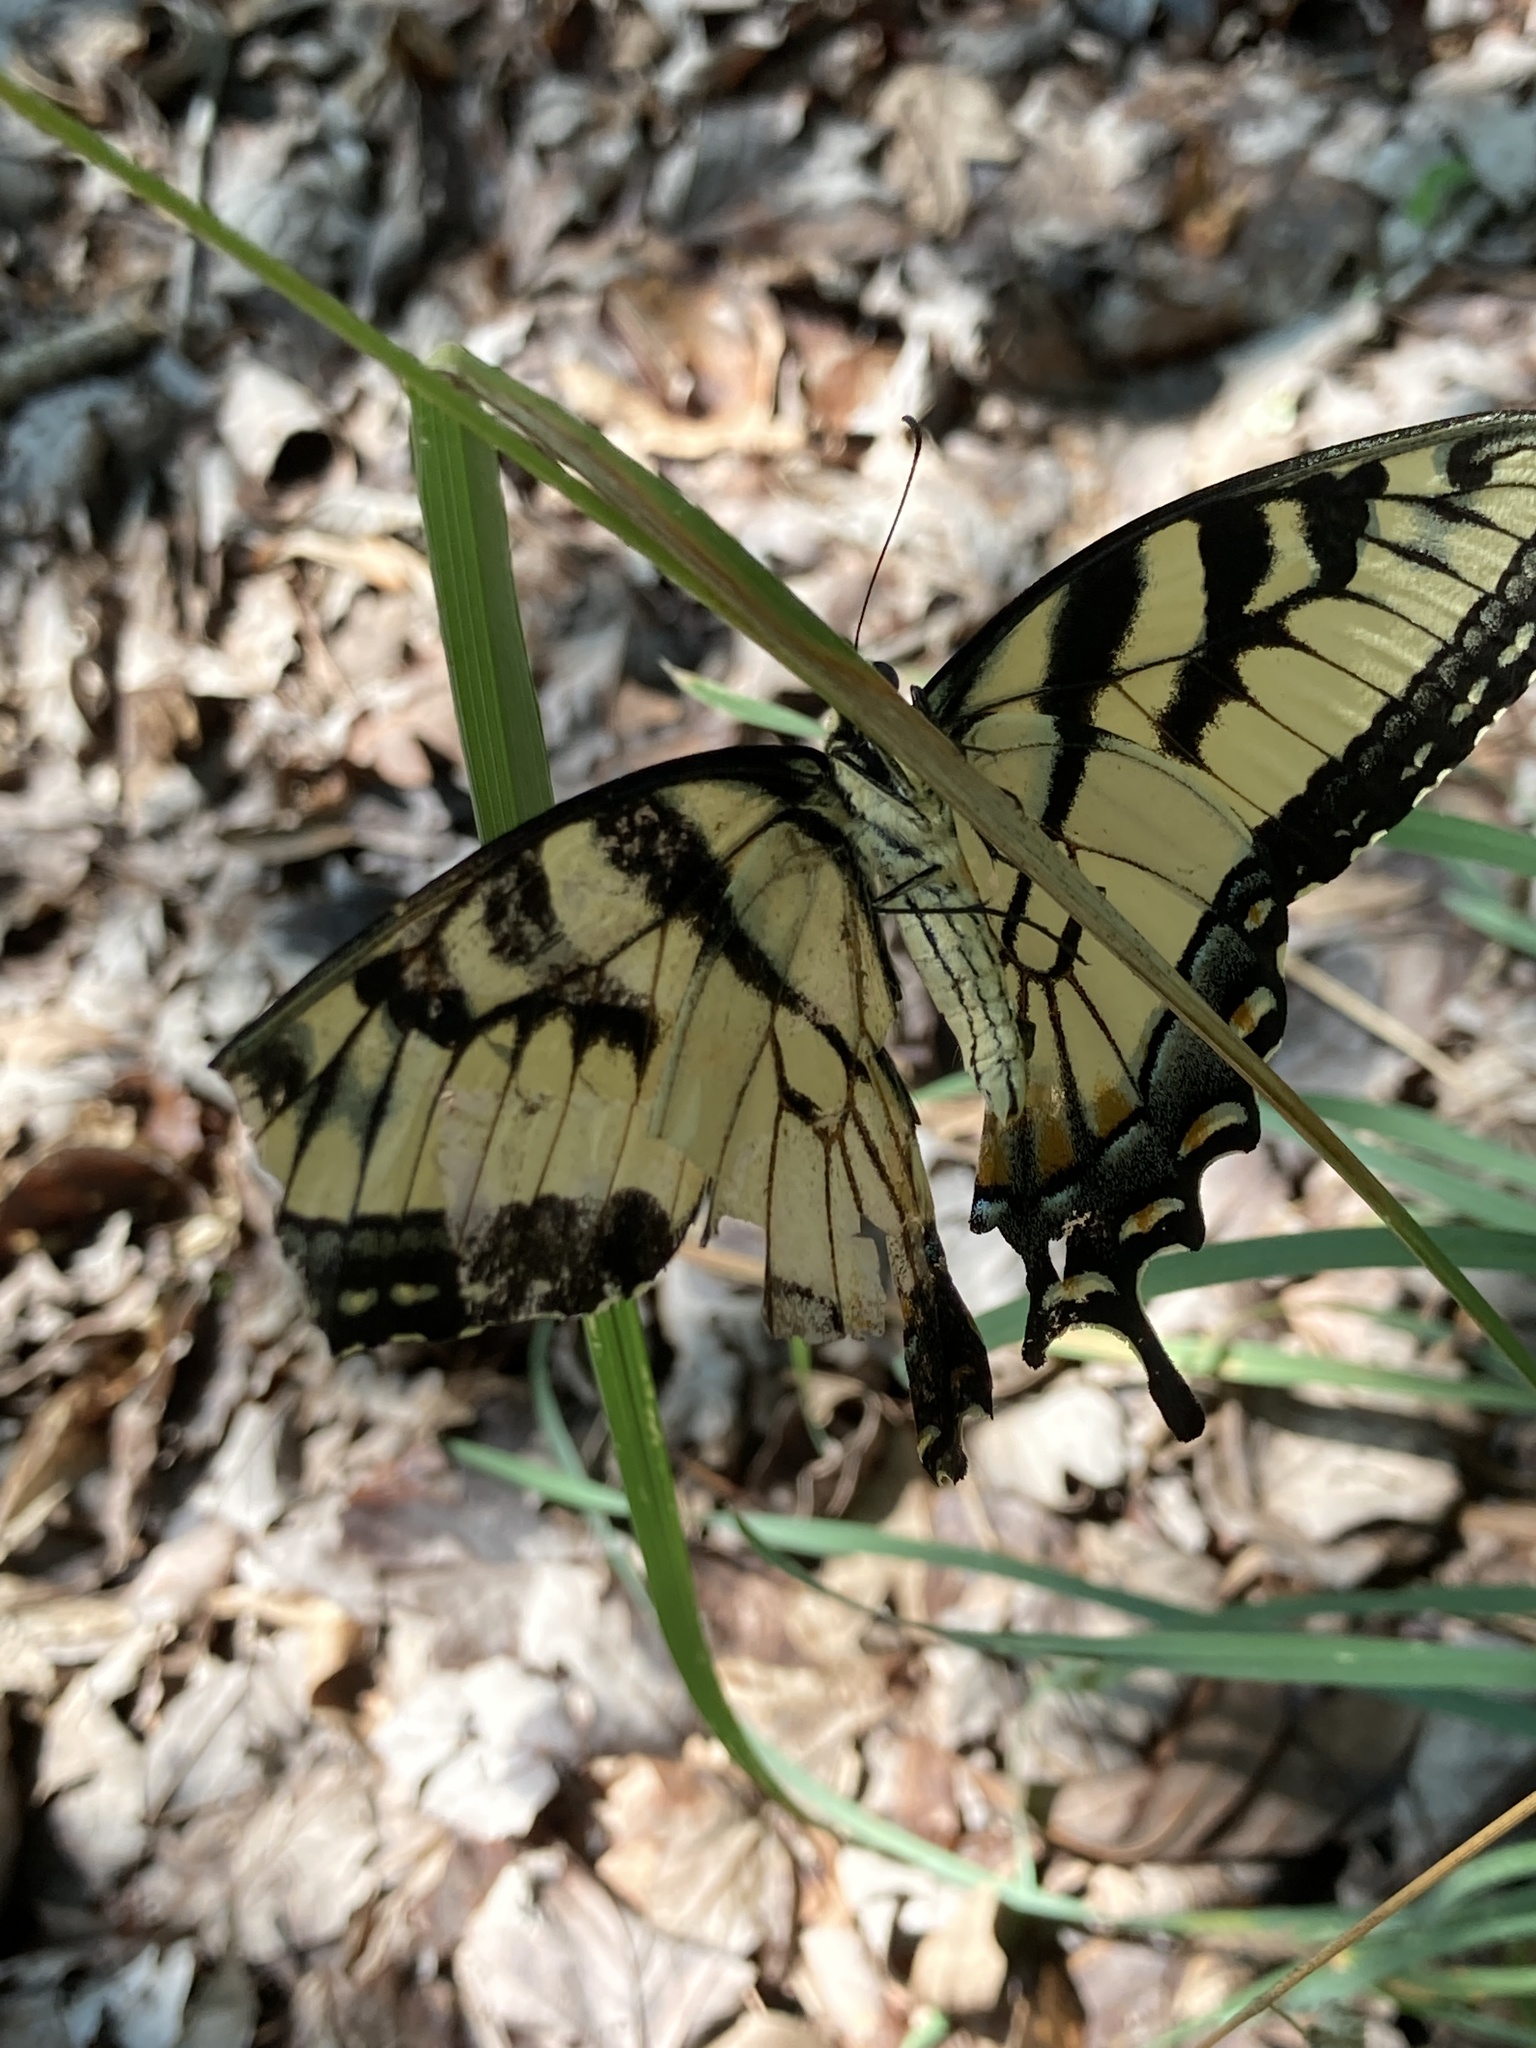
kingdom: Animalia
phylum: Arthropoda
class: Insecta
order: Lepidoptera
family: Papilionidae
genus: Papilio
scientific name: Papilio glaucus
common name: Tiger swallowtail
